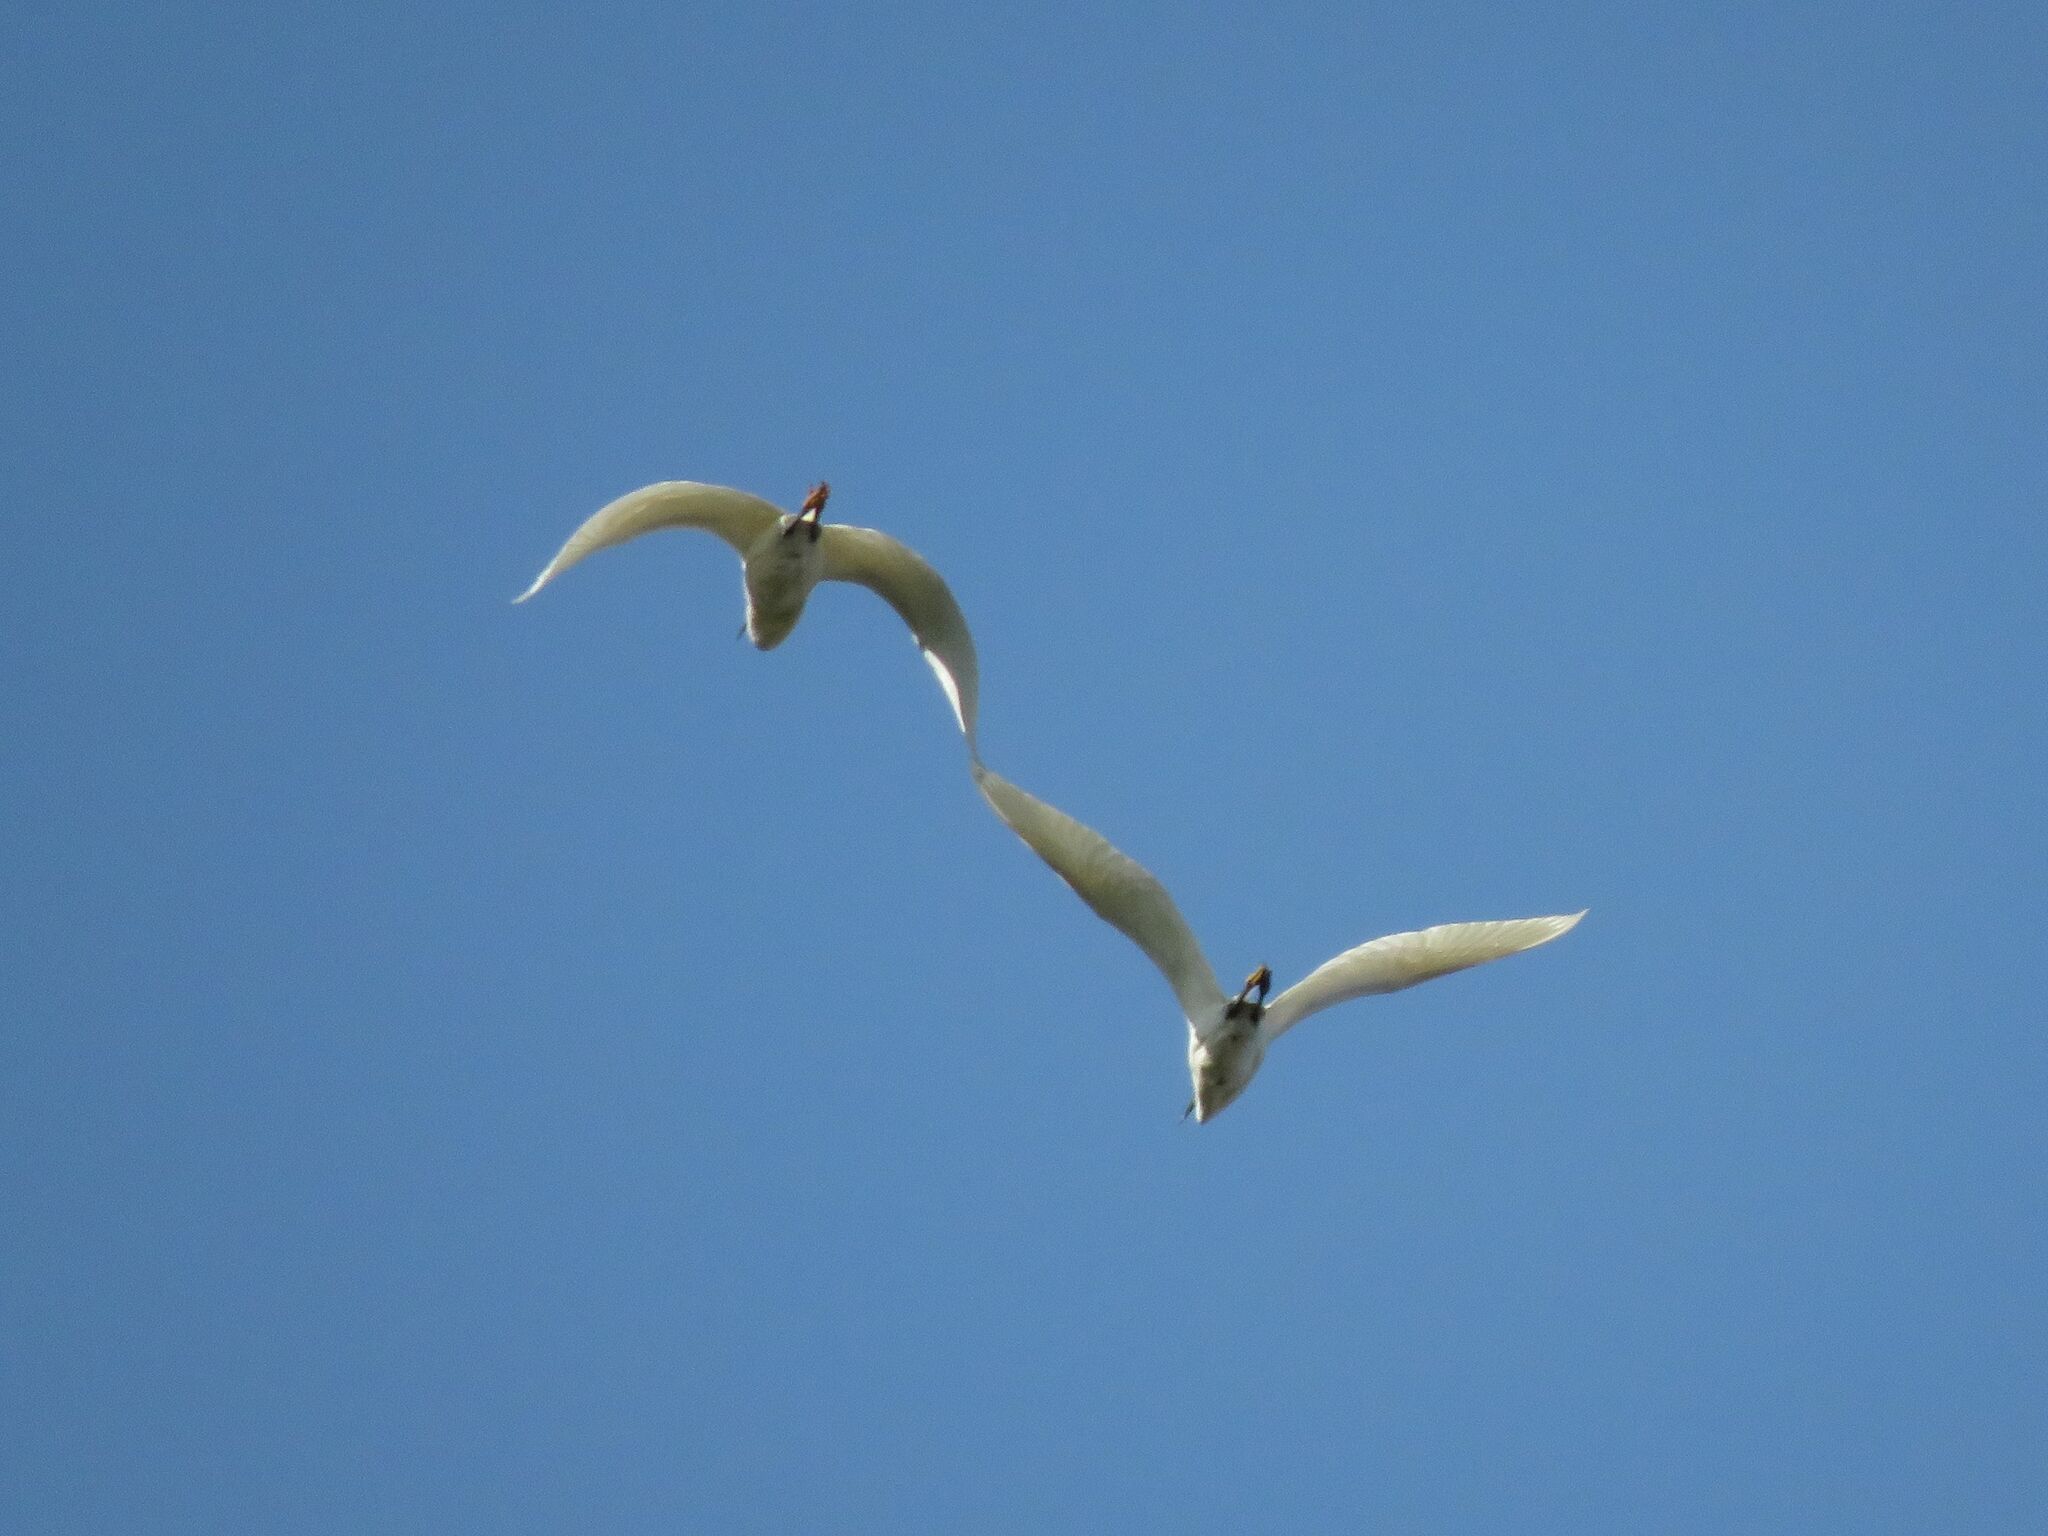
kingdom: Animalia
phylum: Chordata
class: Aves
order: Pelecaniformes
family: Ardeidae
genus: Egretta
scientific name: Egretta thula
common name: Snowy egret
